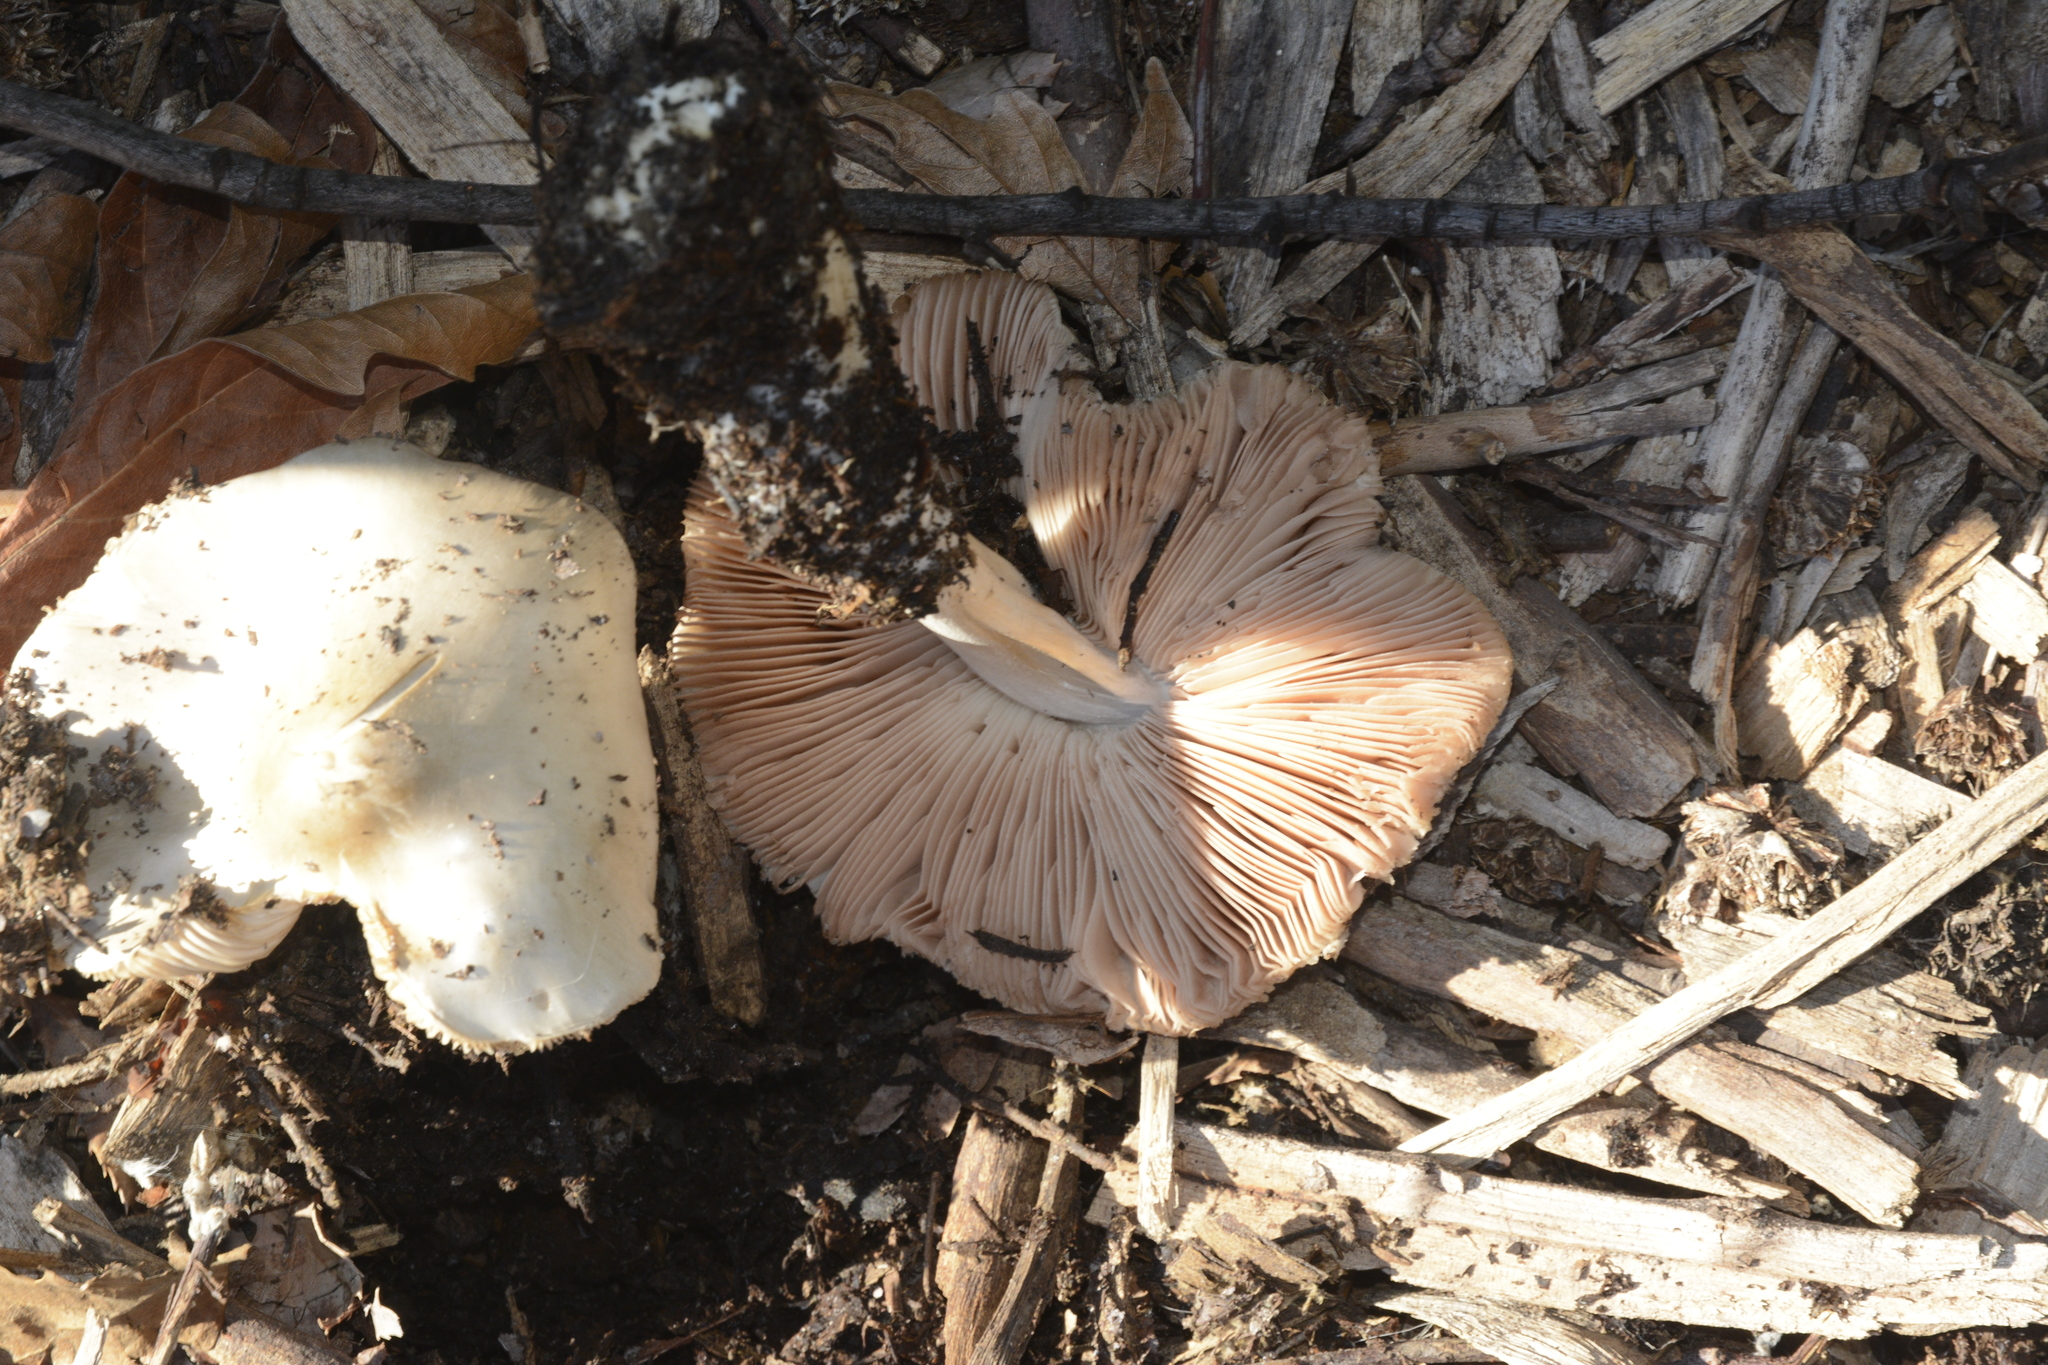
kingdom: Fungi
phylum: Basidiomycota
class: Agaricomycetes
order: Agaricales
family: Pluteaceae
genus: Volvopluteus
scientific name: Volvopluteus gloiocephalus
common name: Stubble rosegill
